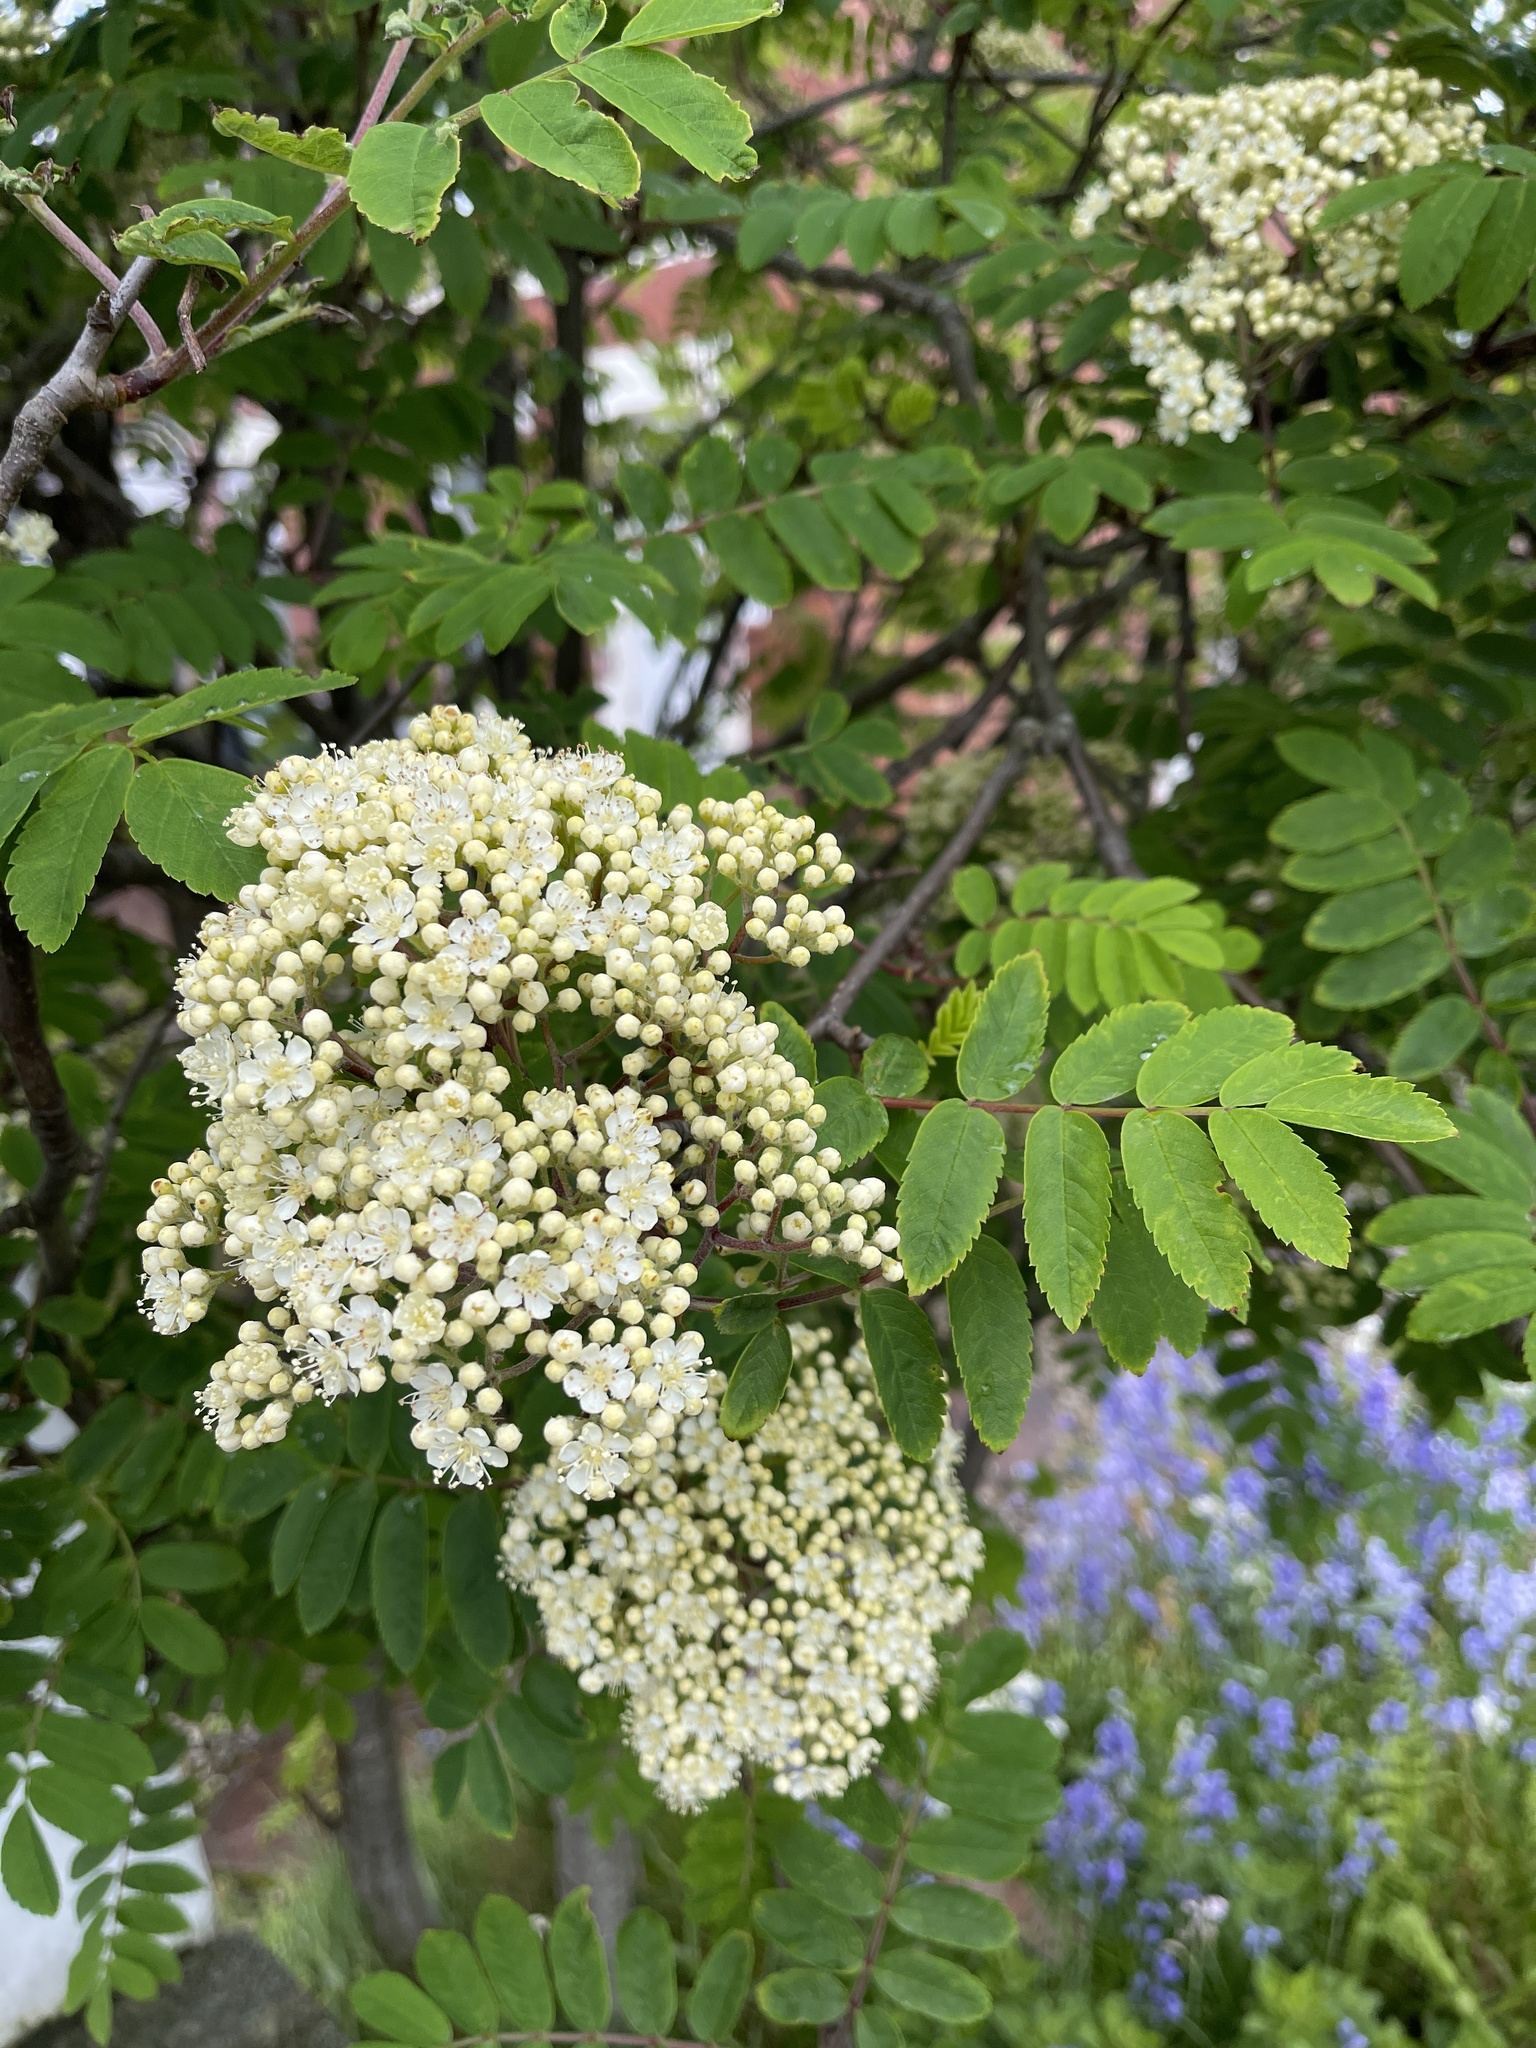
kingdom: Plantae
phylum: Tracheophyta
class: Magnoliopsida
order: Rosales
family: Rosaceae
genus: Sorbus
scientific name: Sorbus aucuparia
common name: Rowan
